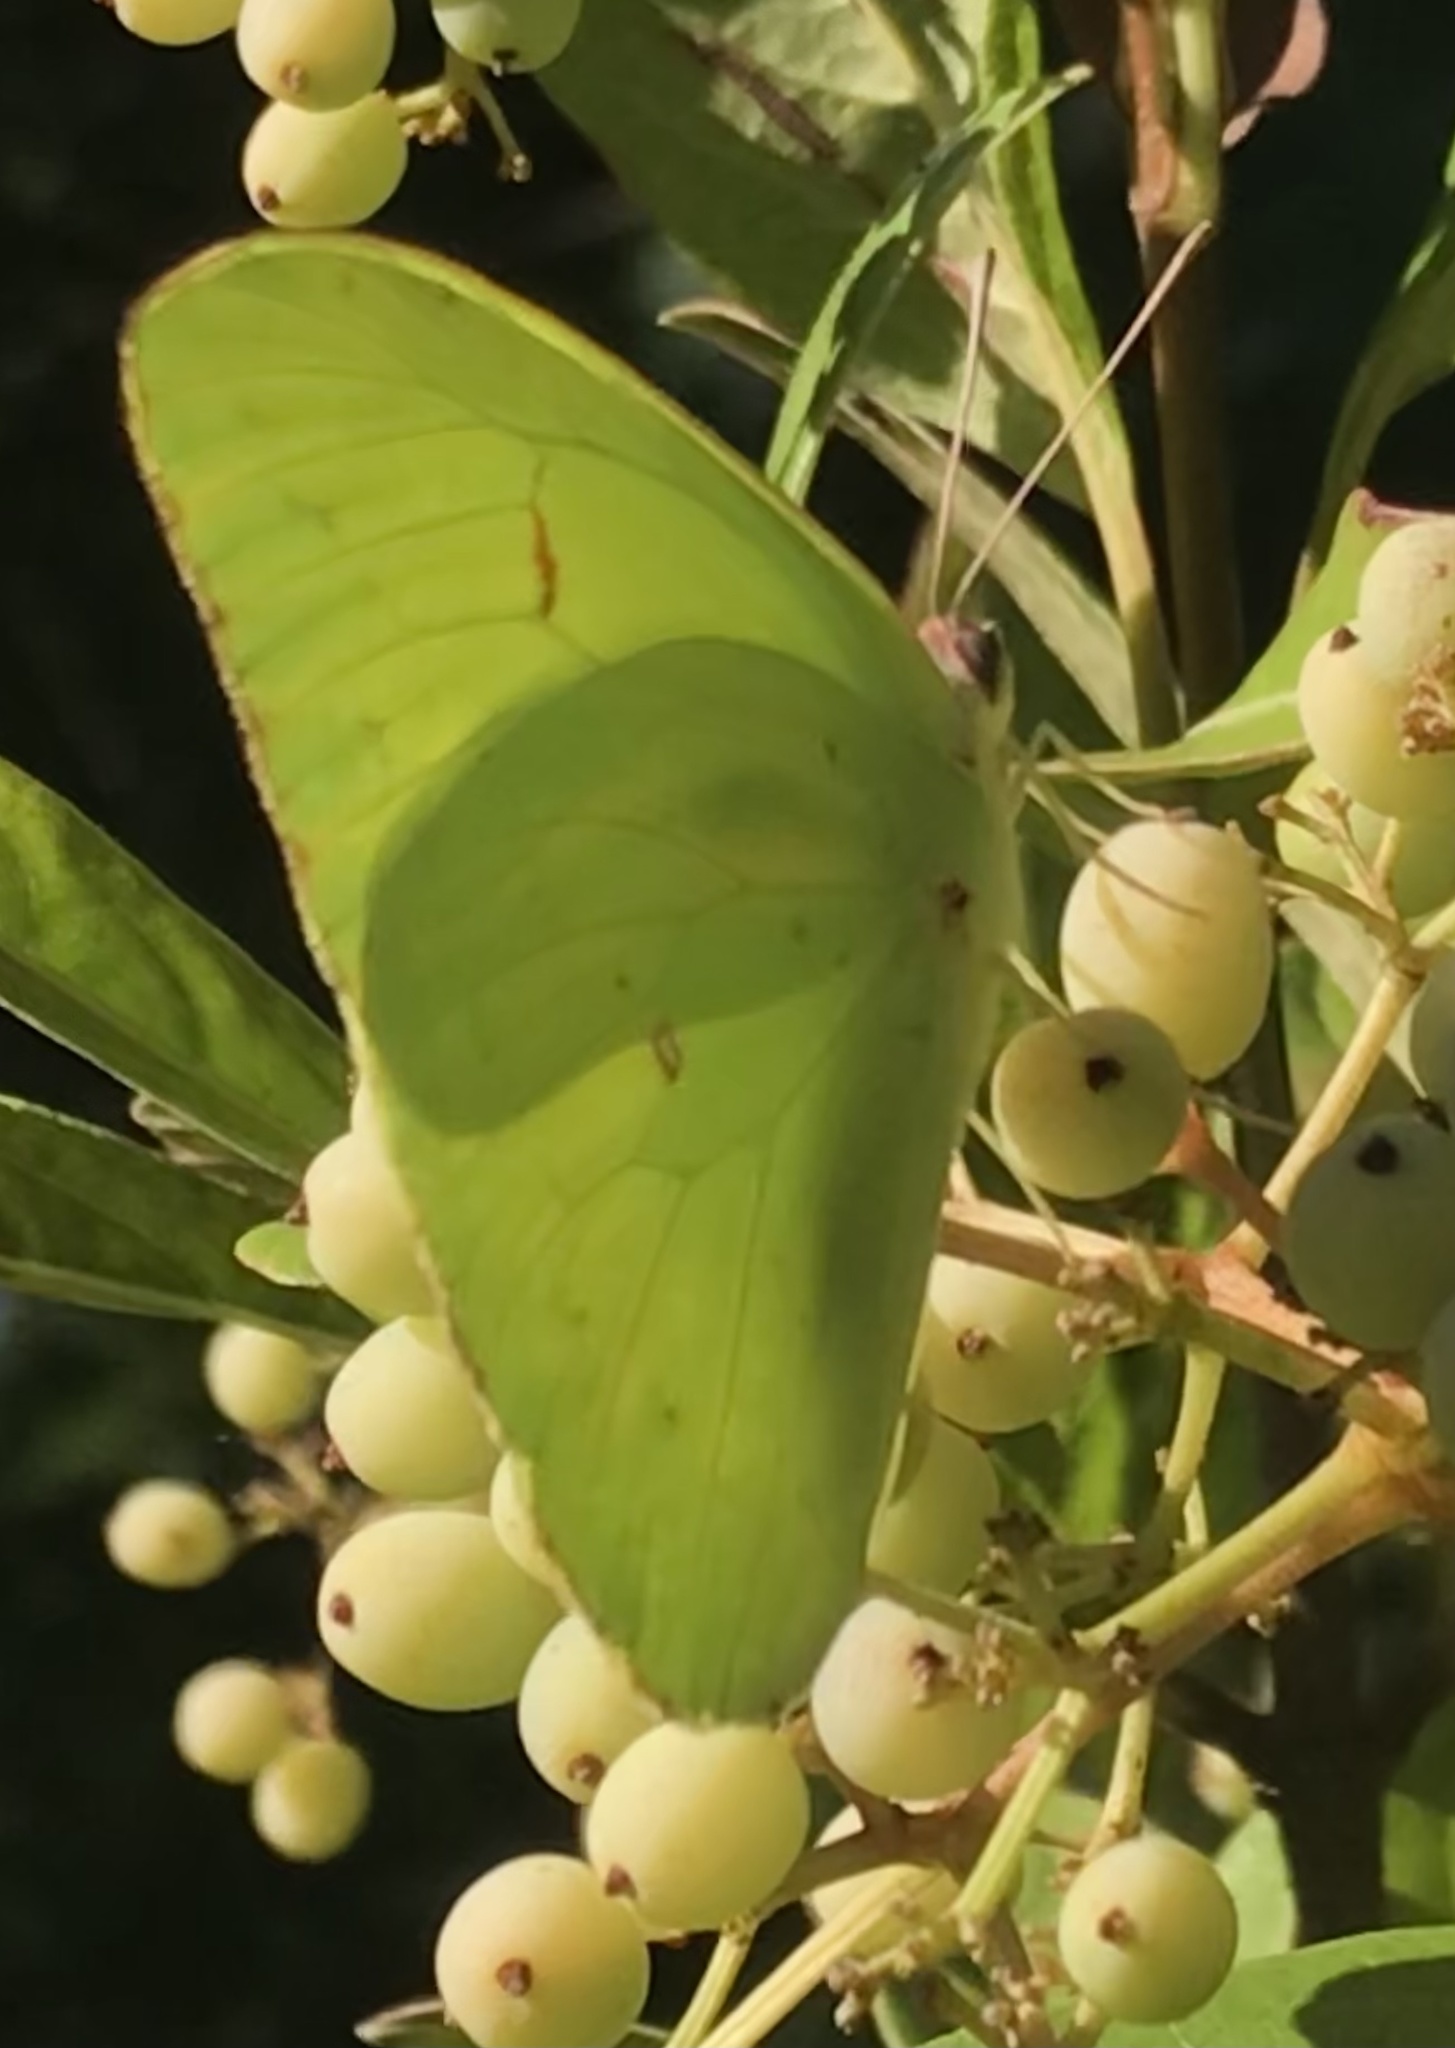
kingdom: Animalia
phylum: Arthropoda
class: Insecta
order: Lepidoptera
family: Pieridae
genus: Phoebis
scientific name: Phoebis sennae
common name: Cloudless sulphur
